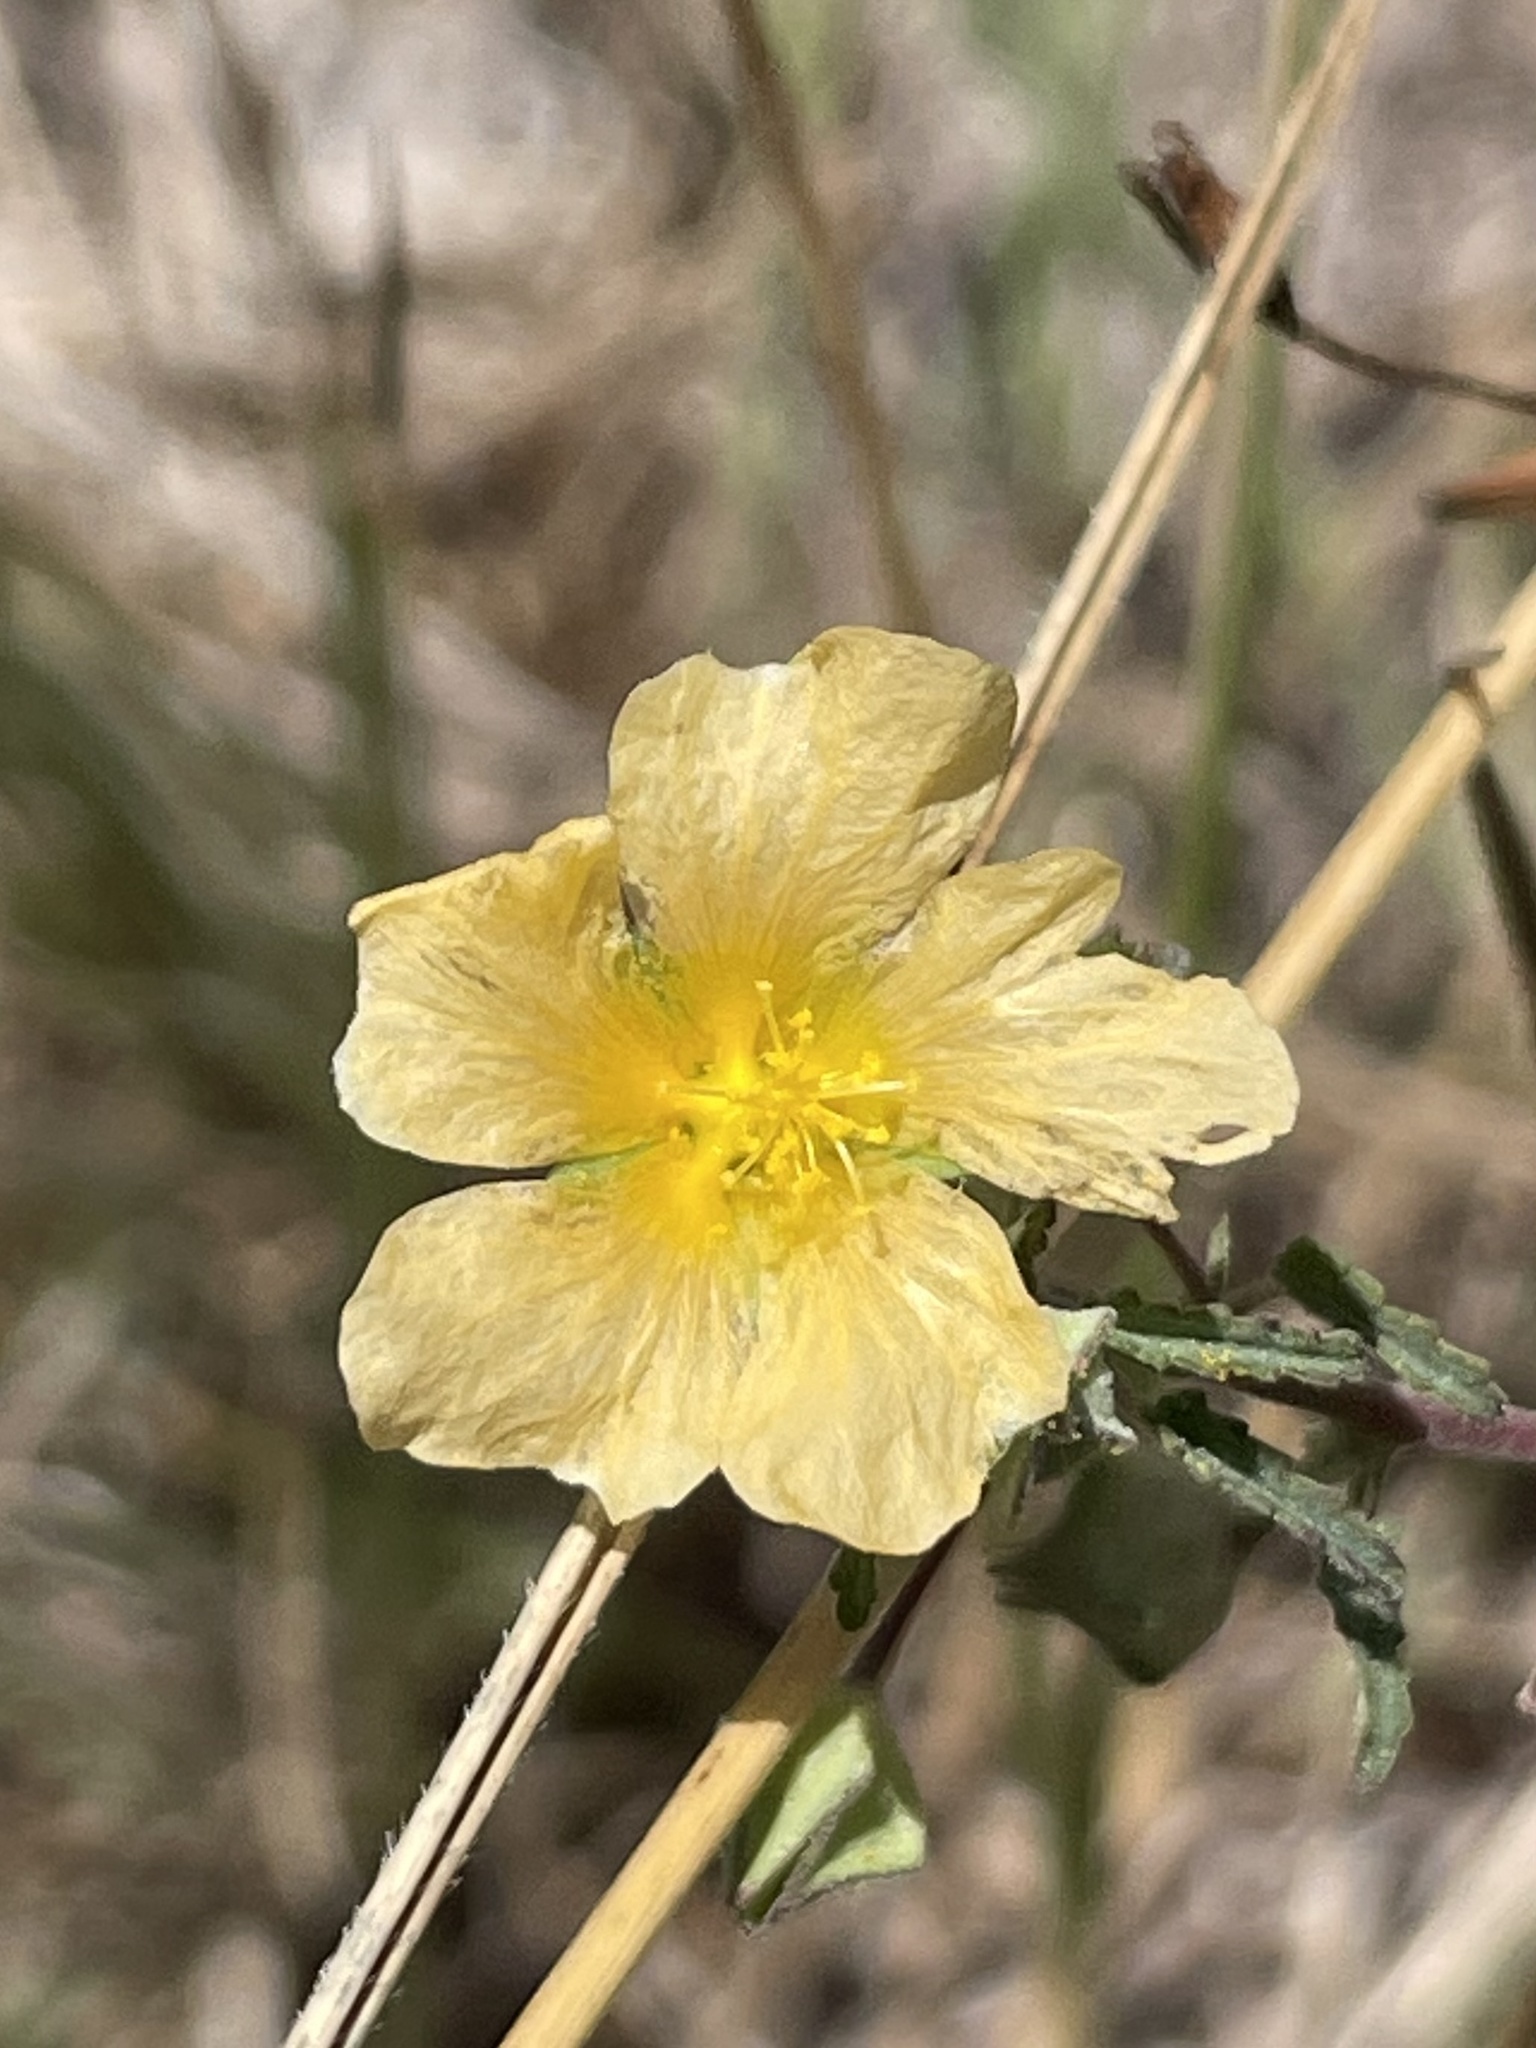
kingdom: Plantae
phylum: Tracheophyta
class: Magnoliopsida
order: Malvales
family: Malvaceae
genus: Sida
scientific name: Sida abutilifolia
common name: Spreading fanpetals
